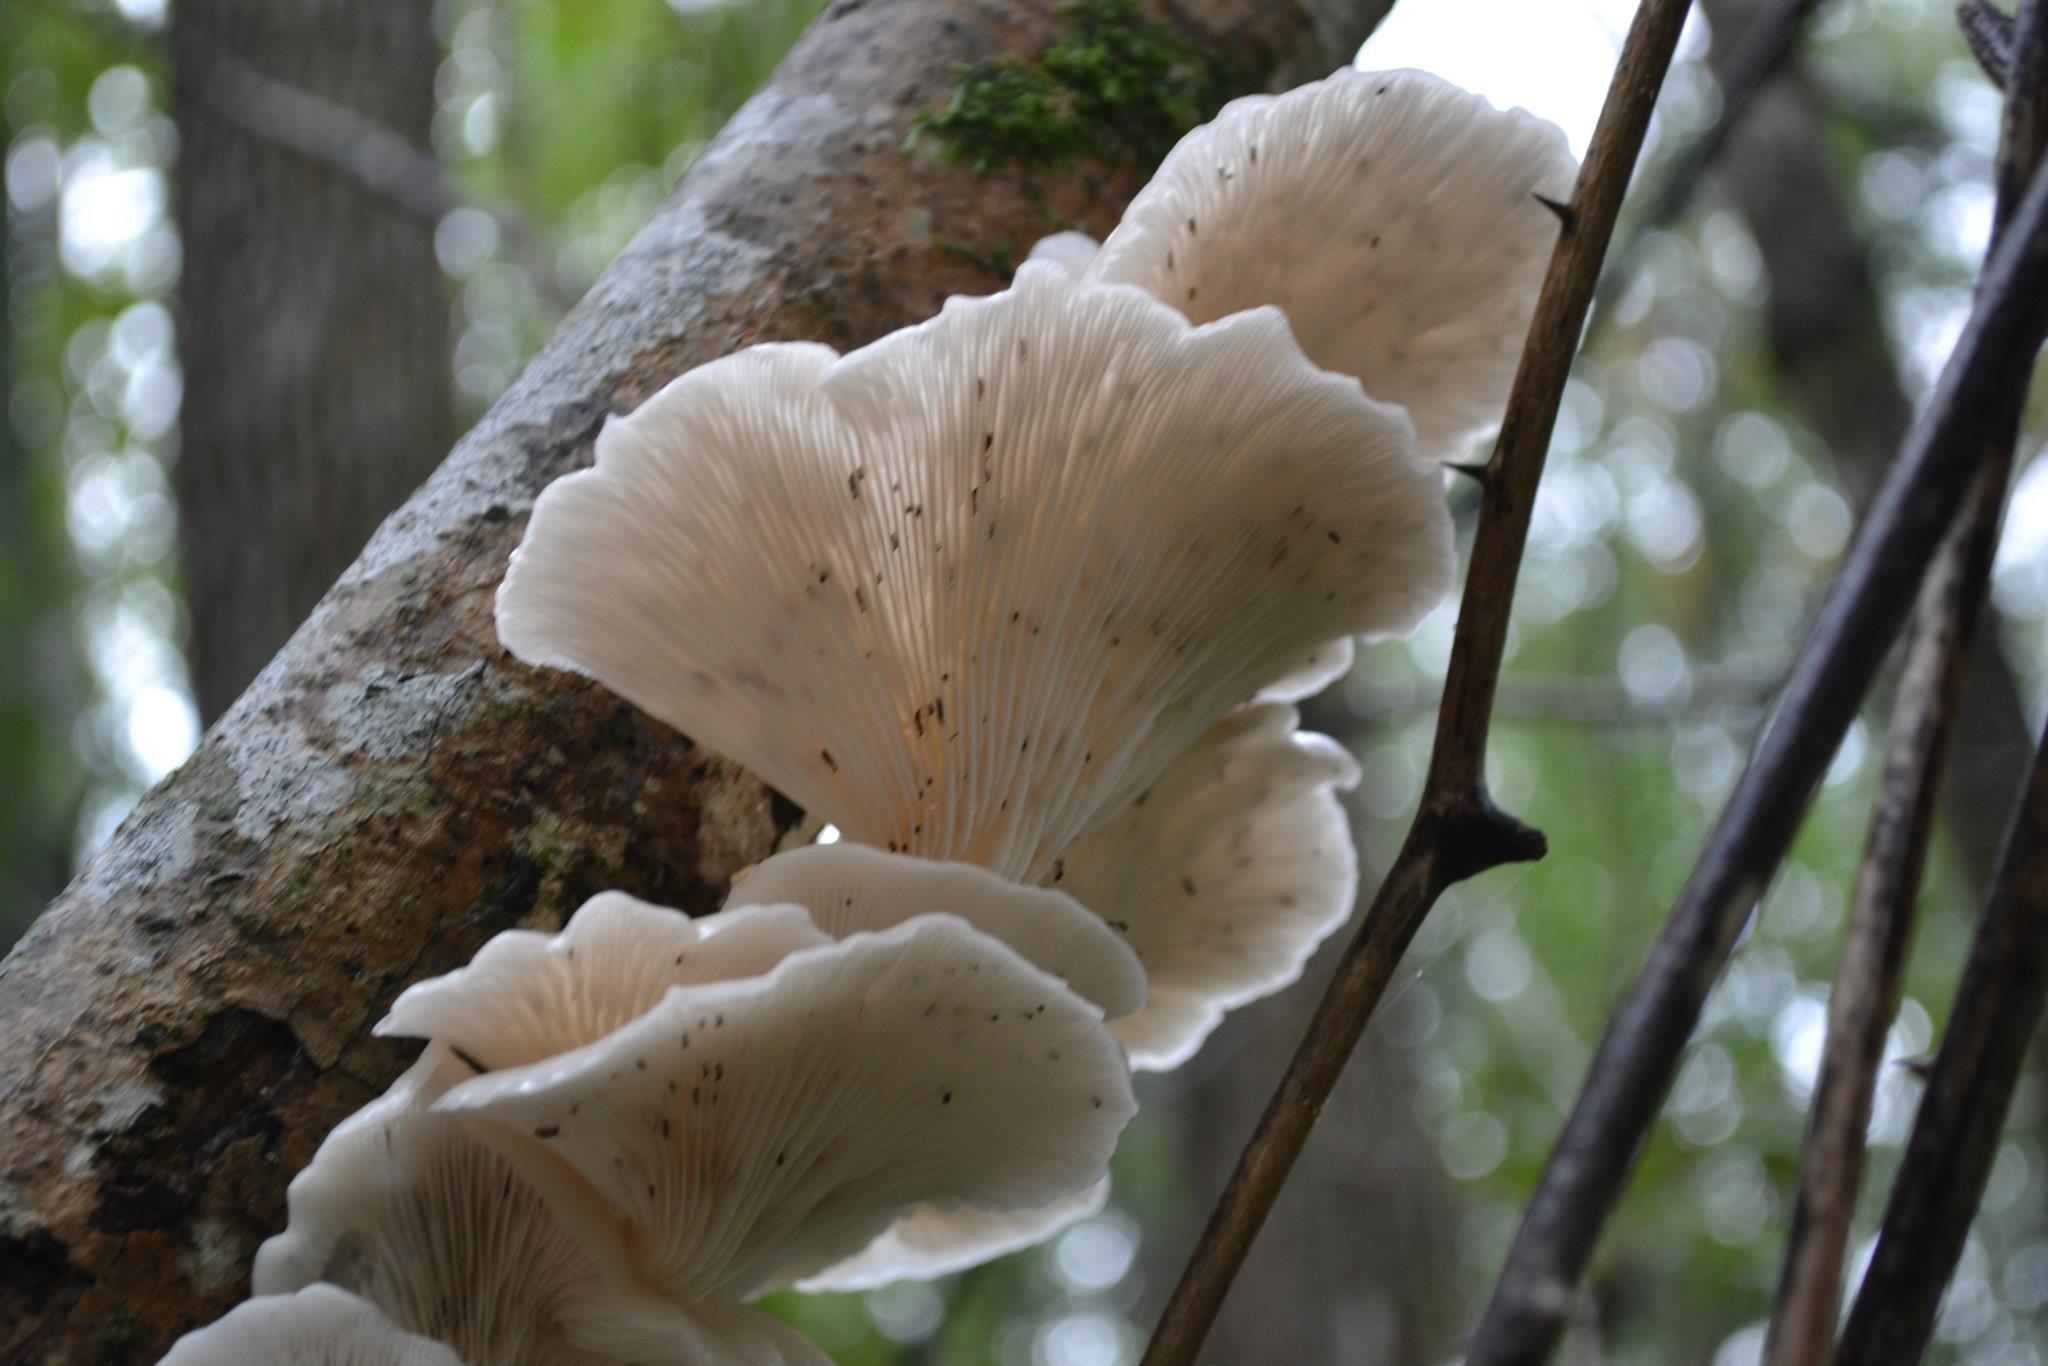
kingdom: Fungi
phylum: Basidiomycota
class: Agaricomycetes
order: Agaricales
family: Marasmiaceae
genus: Pleurocybella
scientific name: Pleurocybella porrigens
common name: Angel's wings
